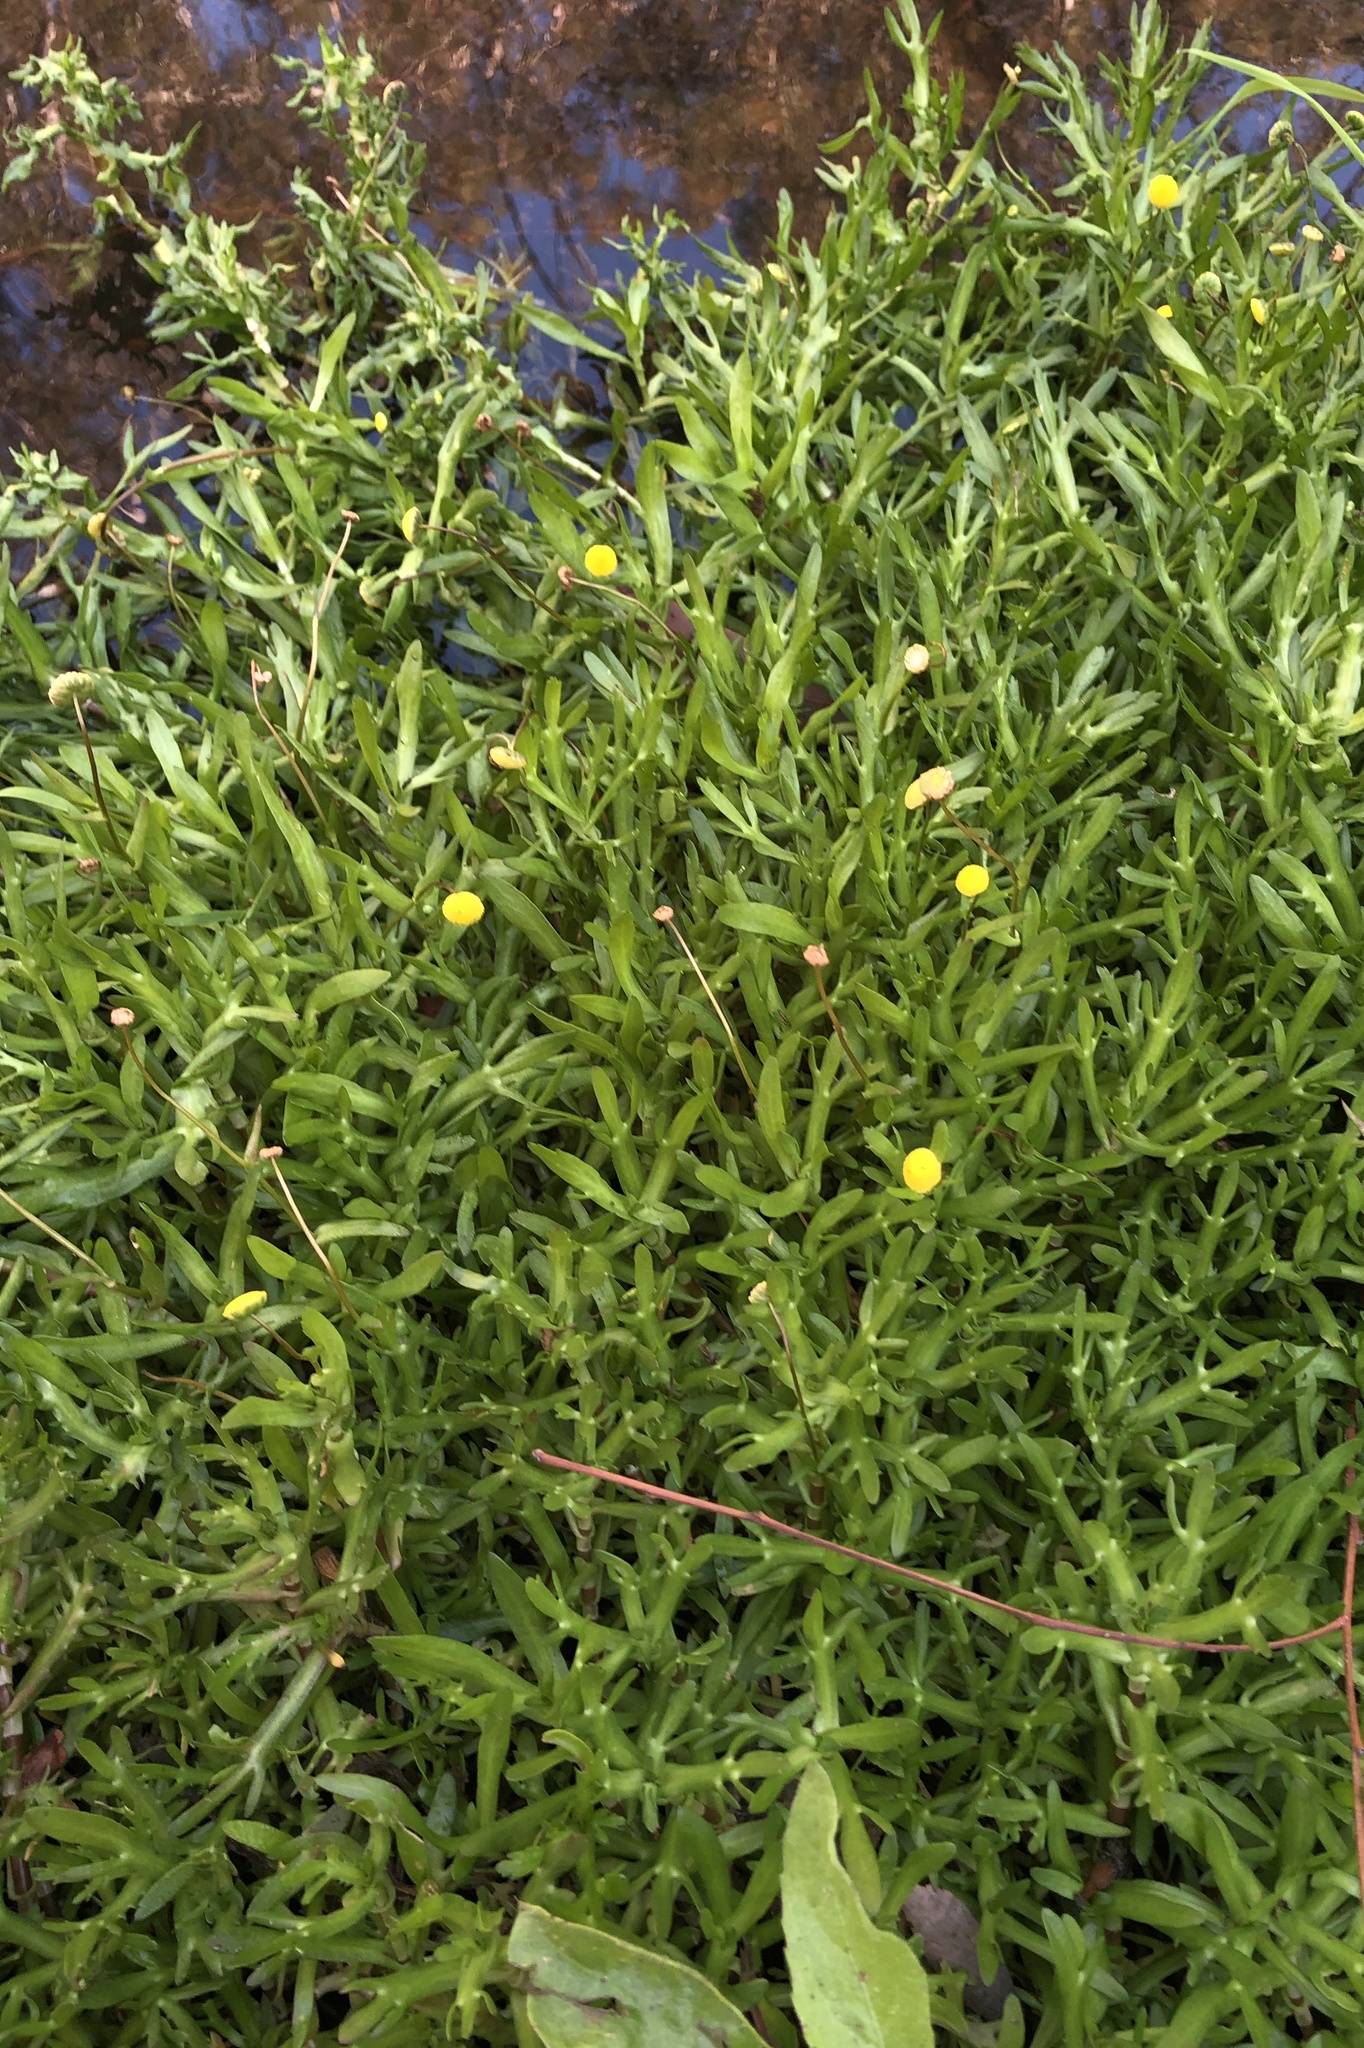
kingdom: Plantae
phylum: Tracheophyta
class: Magnoliopsida
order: Asterales
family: Asteraceae
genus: Cotula
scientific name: Cotula coronopifolia
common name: Buttonweed
